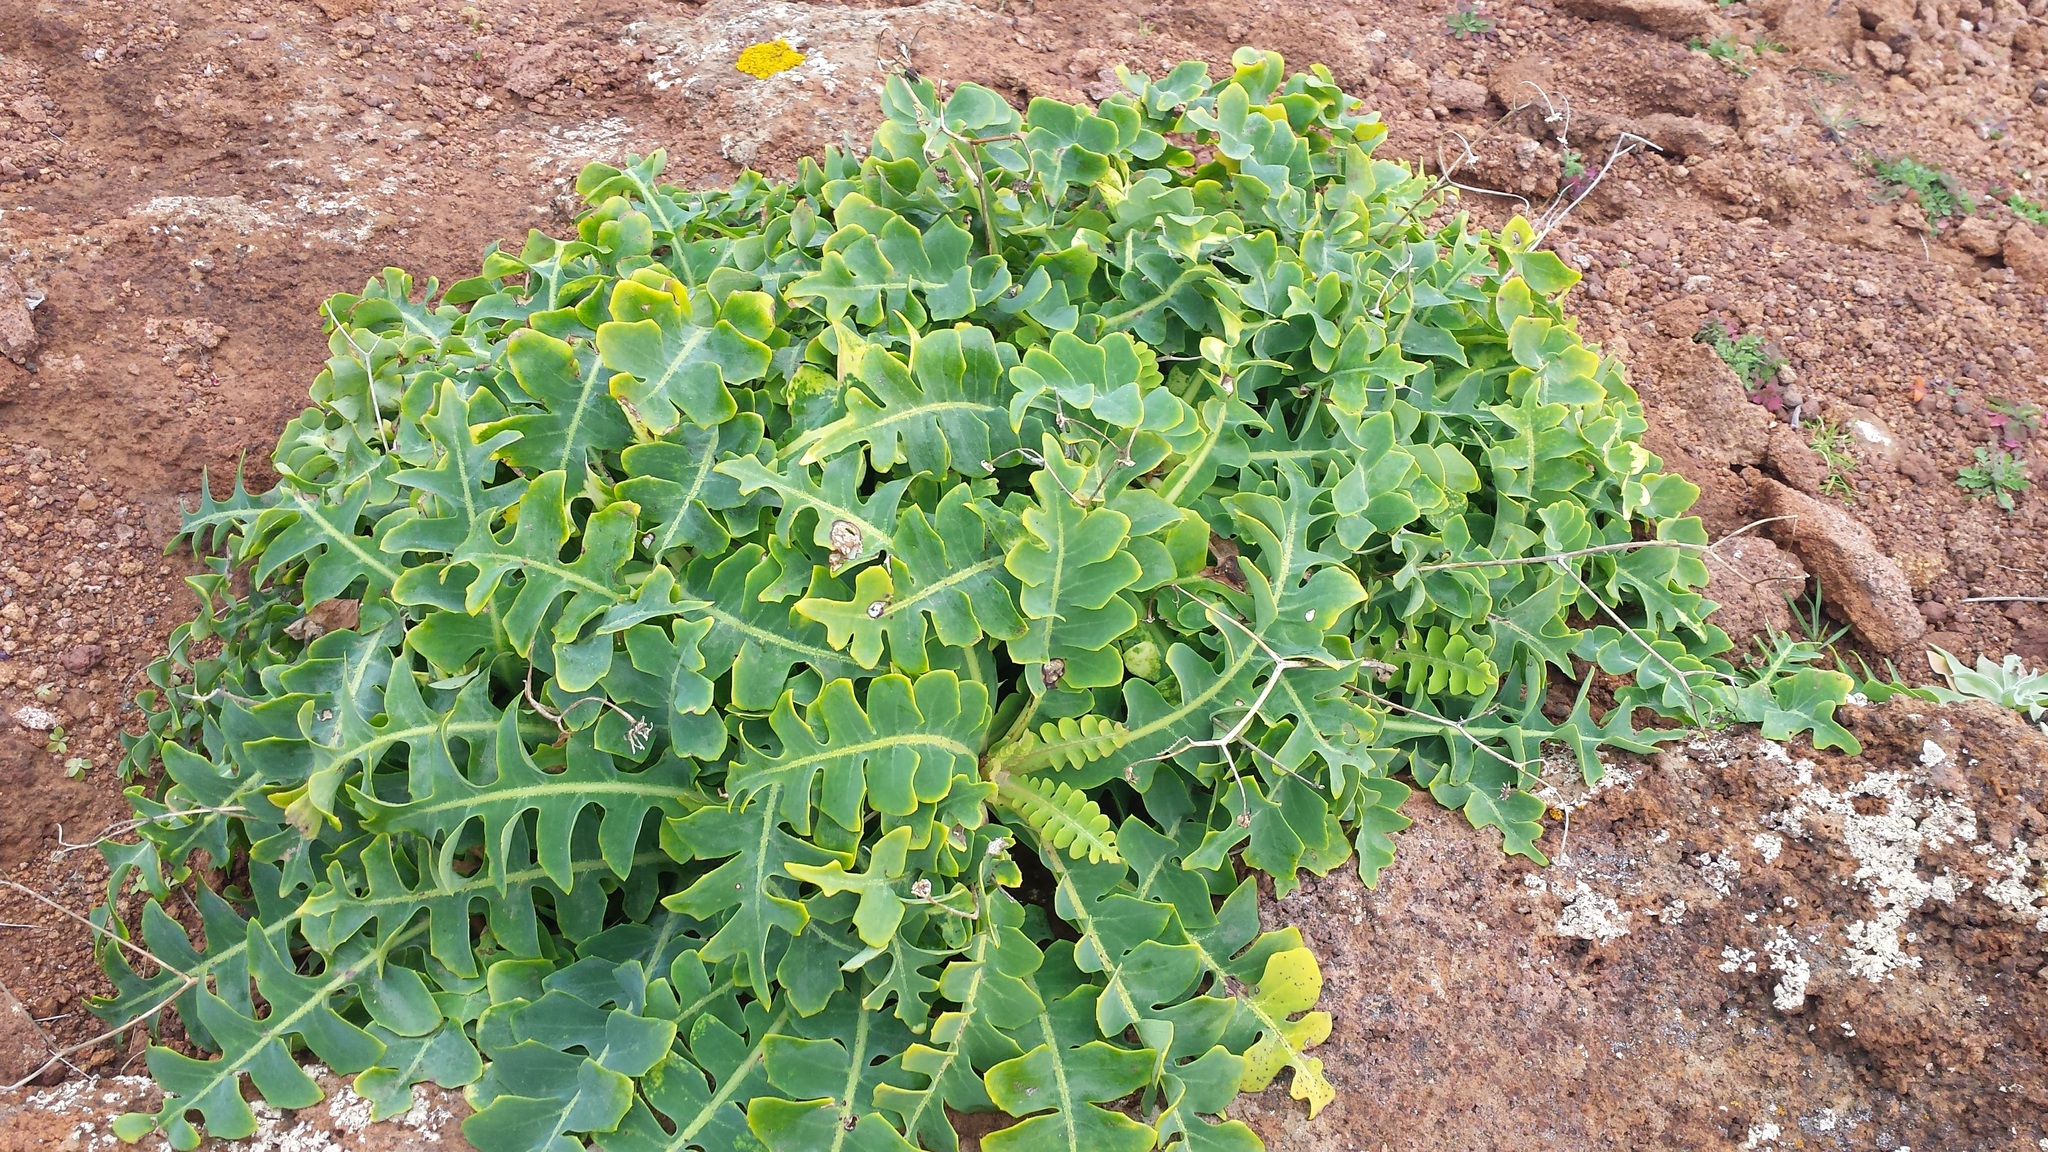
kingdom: Plantae
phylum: Tracheophyta
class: Magnoliopsida
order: Asterales
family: Asteraceae
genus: Sonchus
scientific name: Sonchus latifolius
